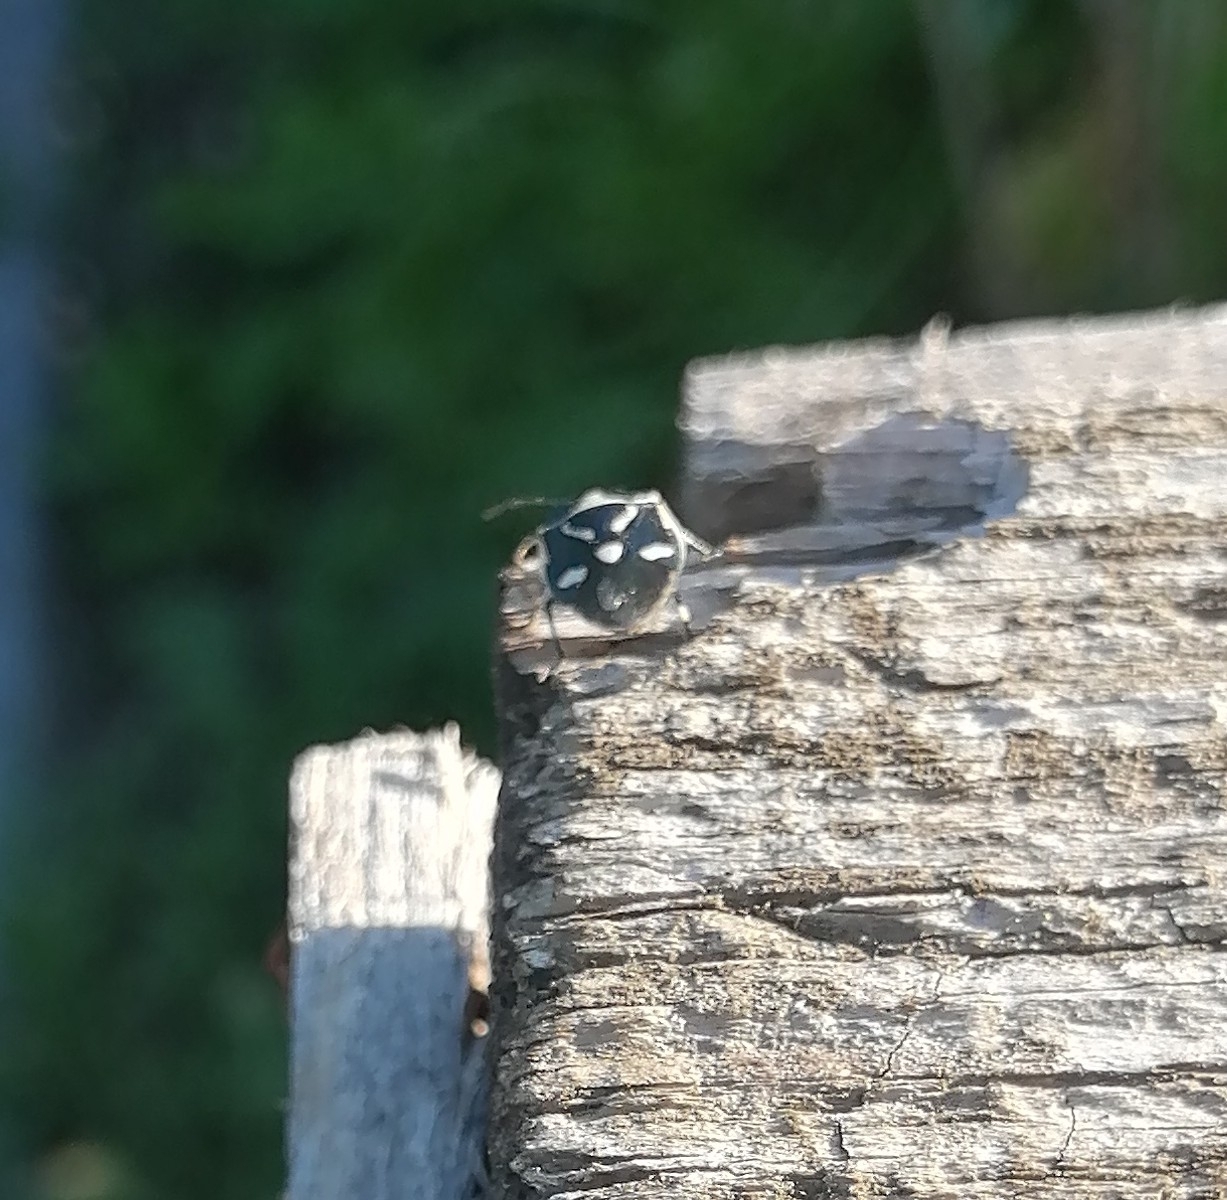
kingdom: Animalia
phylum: Arthropoda
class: Insecta
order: Hemiptera
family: Pentatomidae
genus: Eurydema
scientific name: Eurydema oleracea
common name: Cabbage bug
